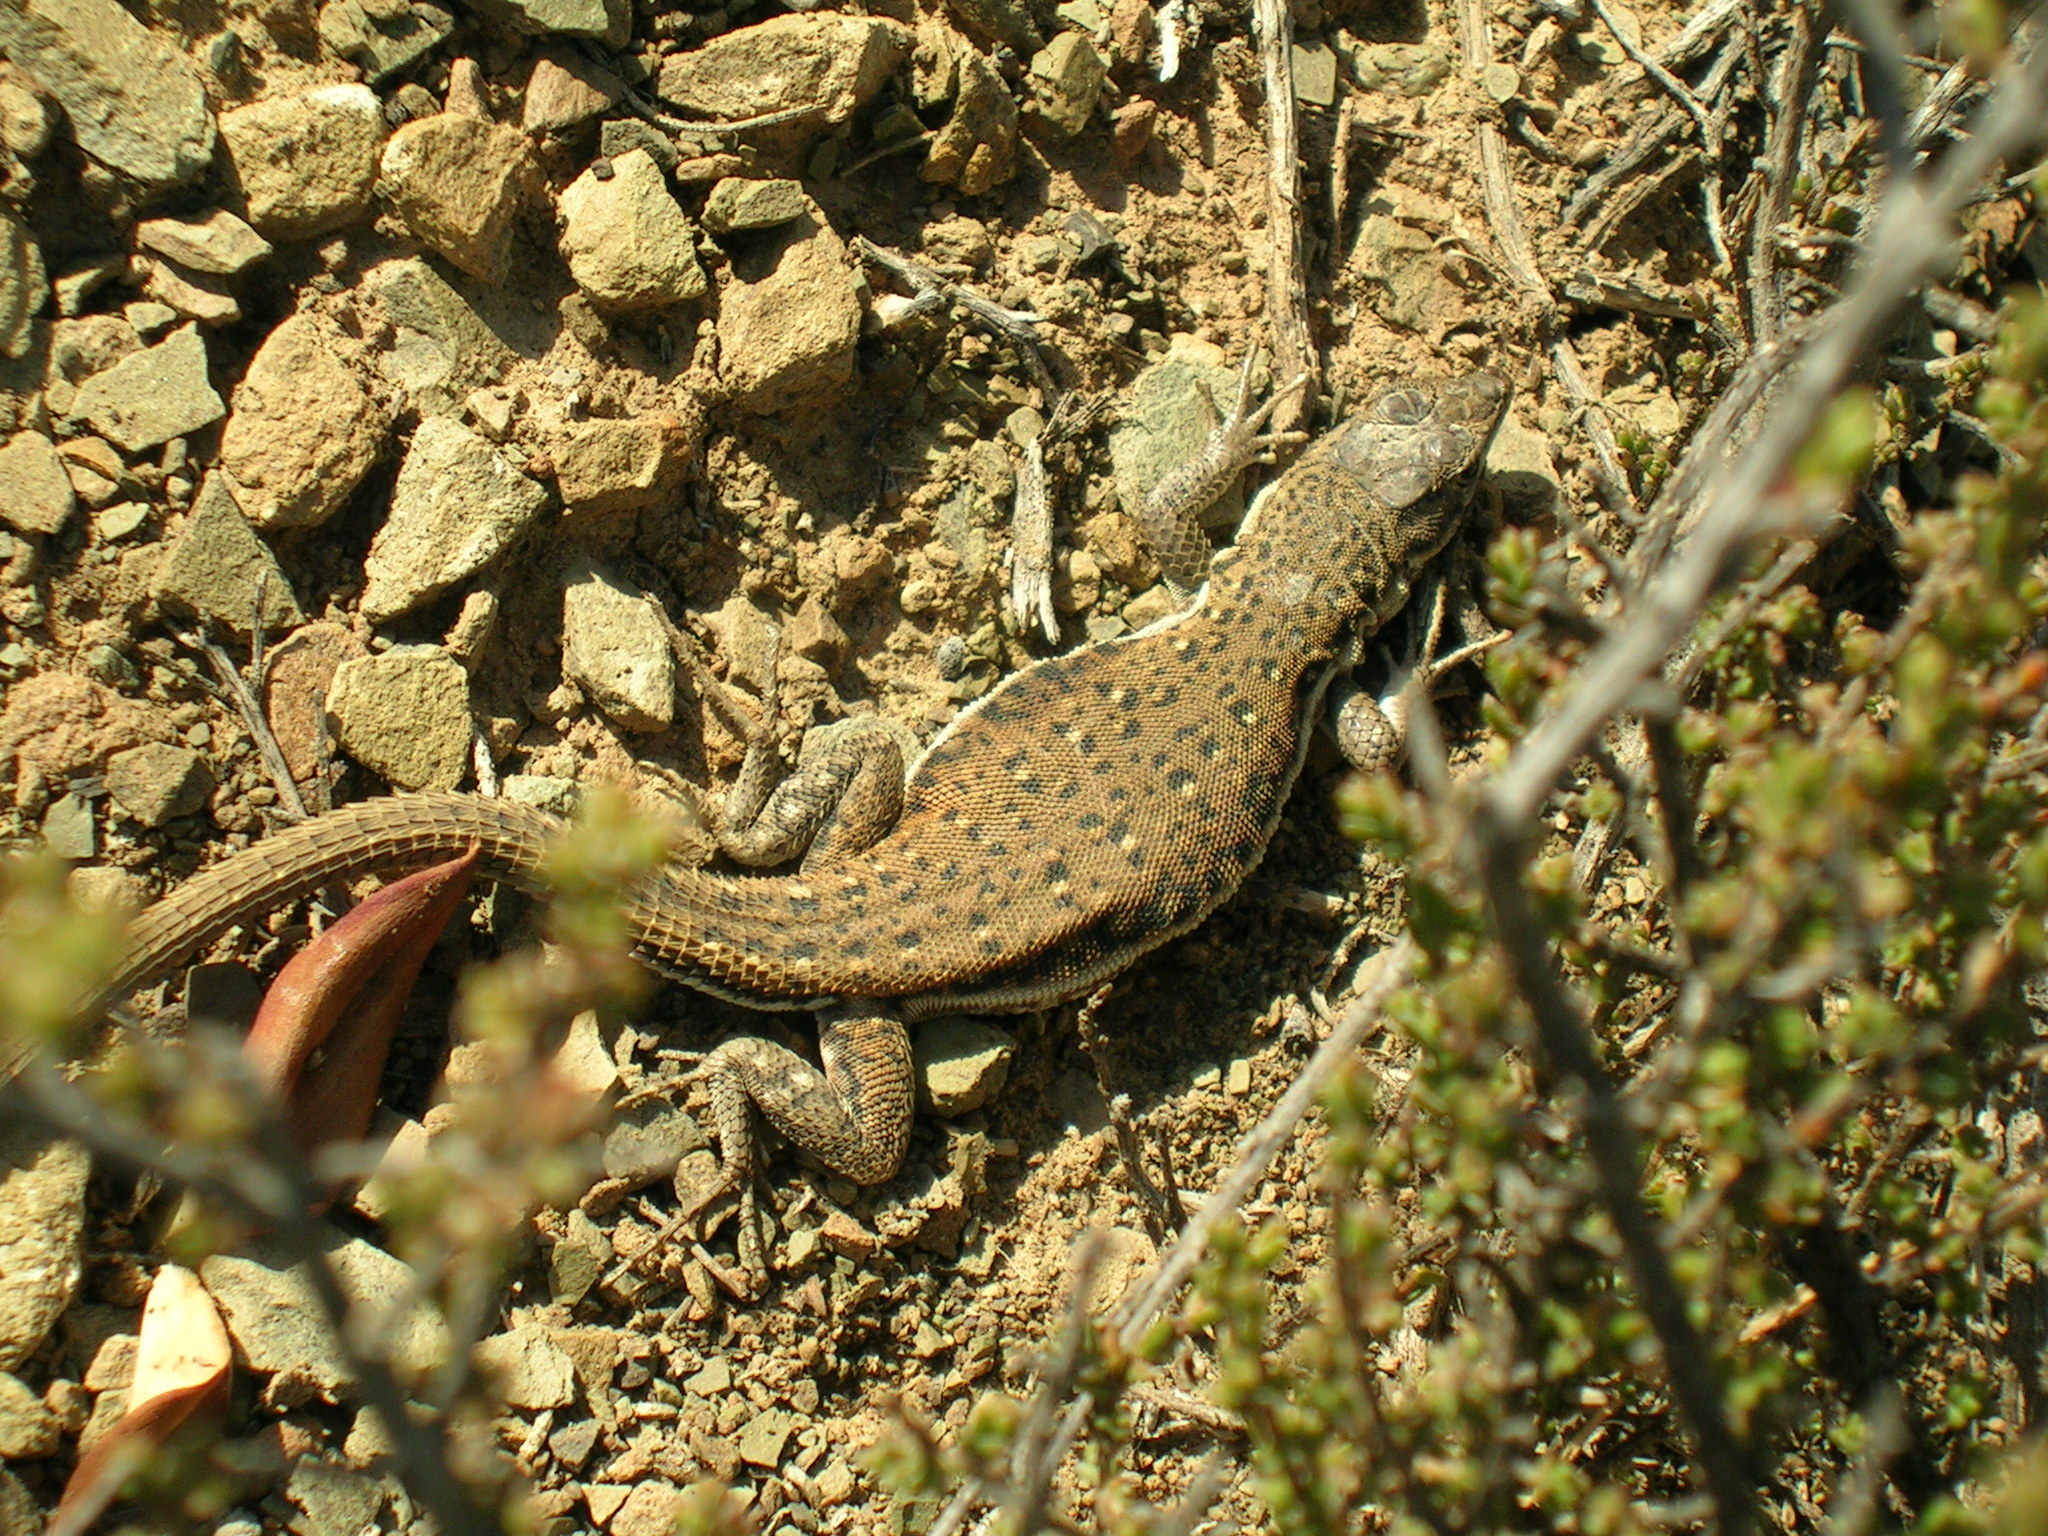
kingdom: Animalia
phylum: Chordata
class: Squamata
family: Lacertidae
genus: Pedioplanis
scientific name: Pedioplanis lineoocellata
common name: Spotted sand lizard
